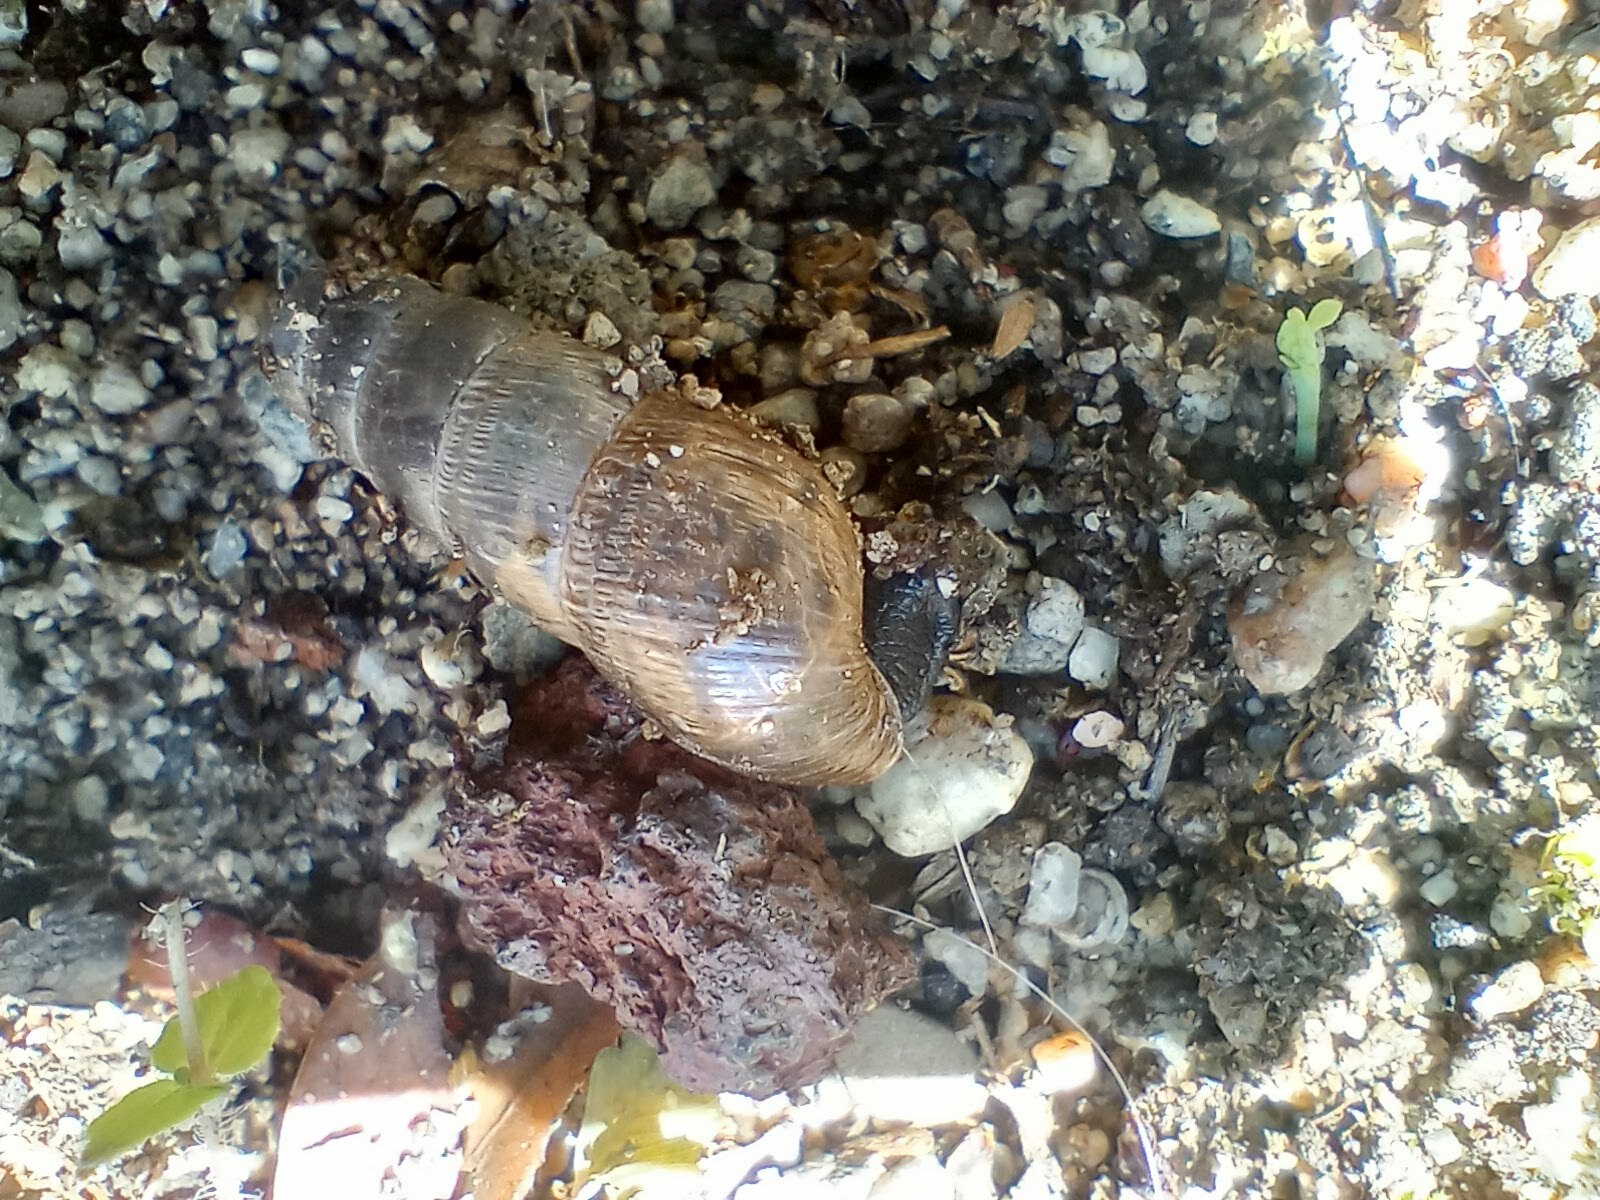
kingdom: Animalia
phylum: Mollusca
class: Gastropoda
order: Stylommatophora
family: Achatinidae
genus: Rumina
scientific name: Rumina decollata
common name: Decollate snail
